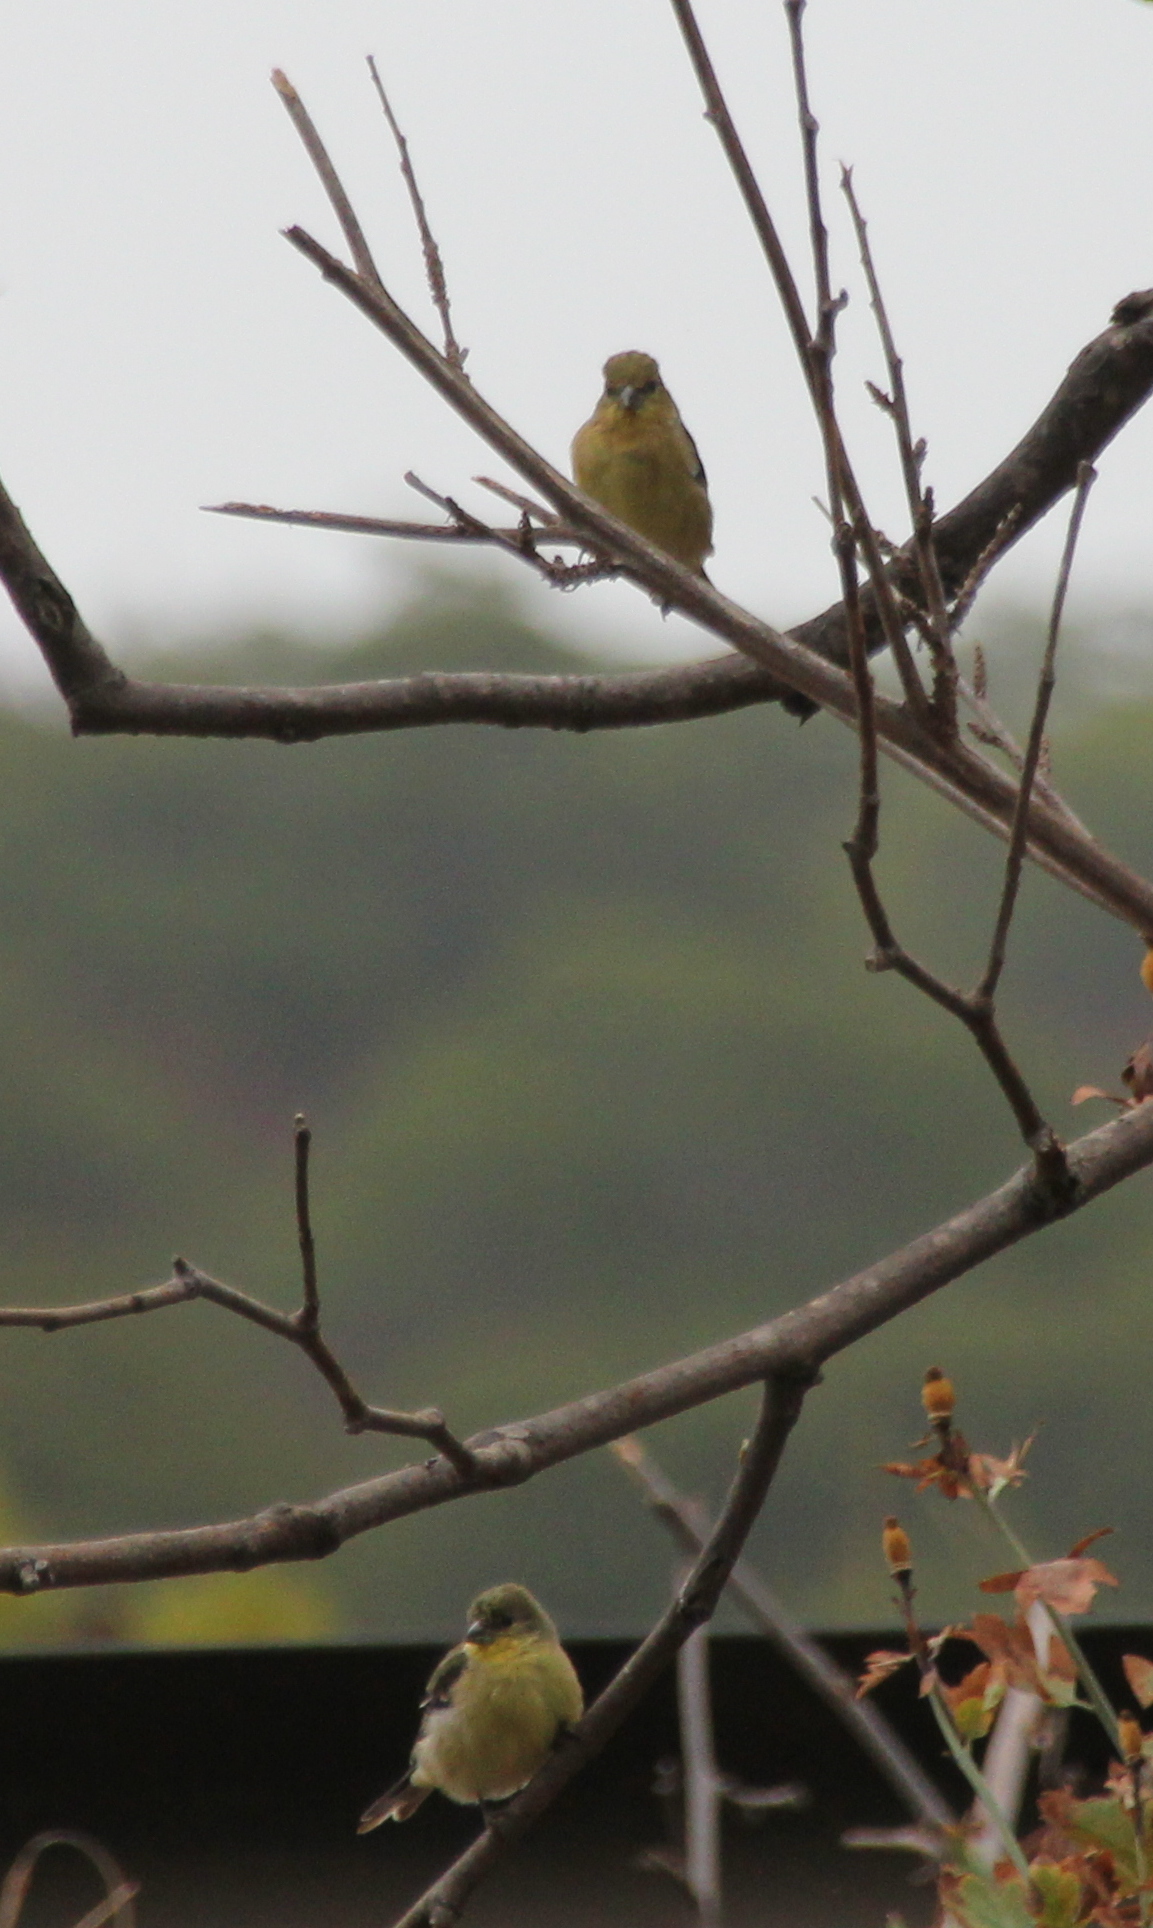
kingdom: Animalia
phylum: Chordata
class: Aves
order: Passeriformes
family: Fringillidae
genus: Spinus
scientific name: Spinus psaltria
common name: Lesser goldfinch
